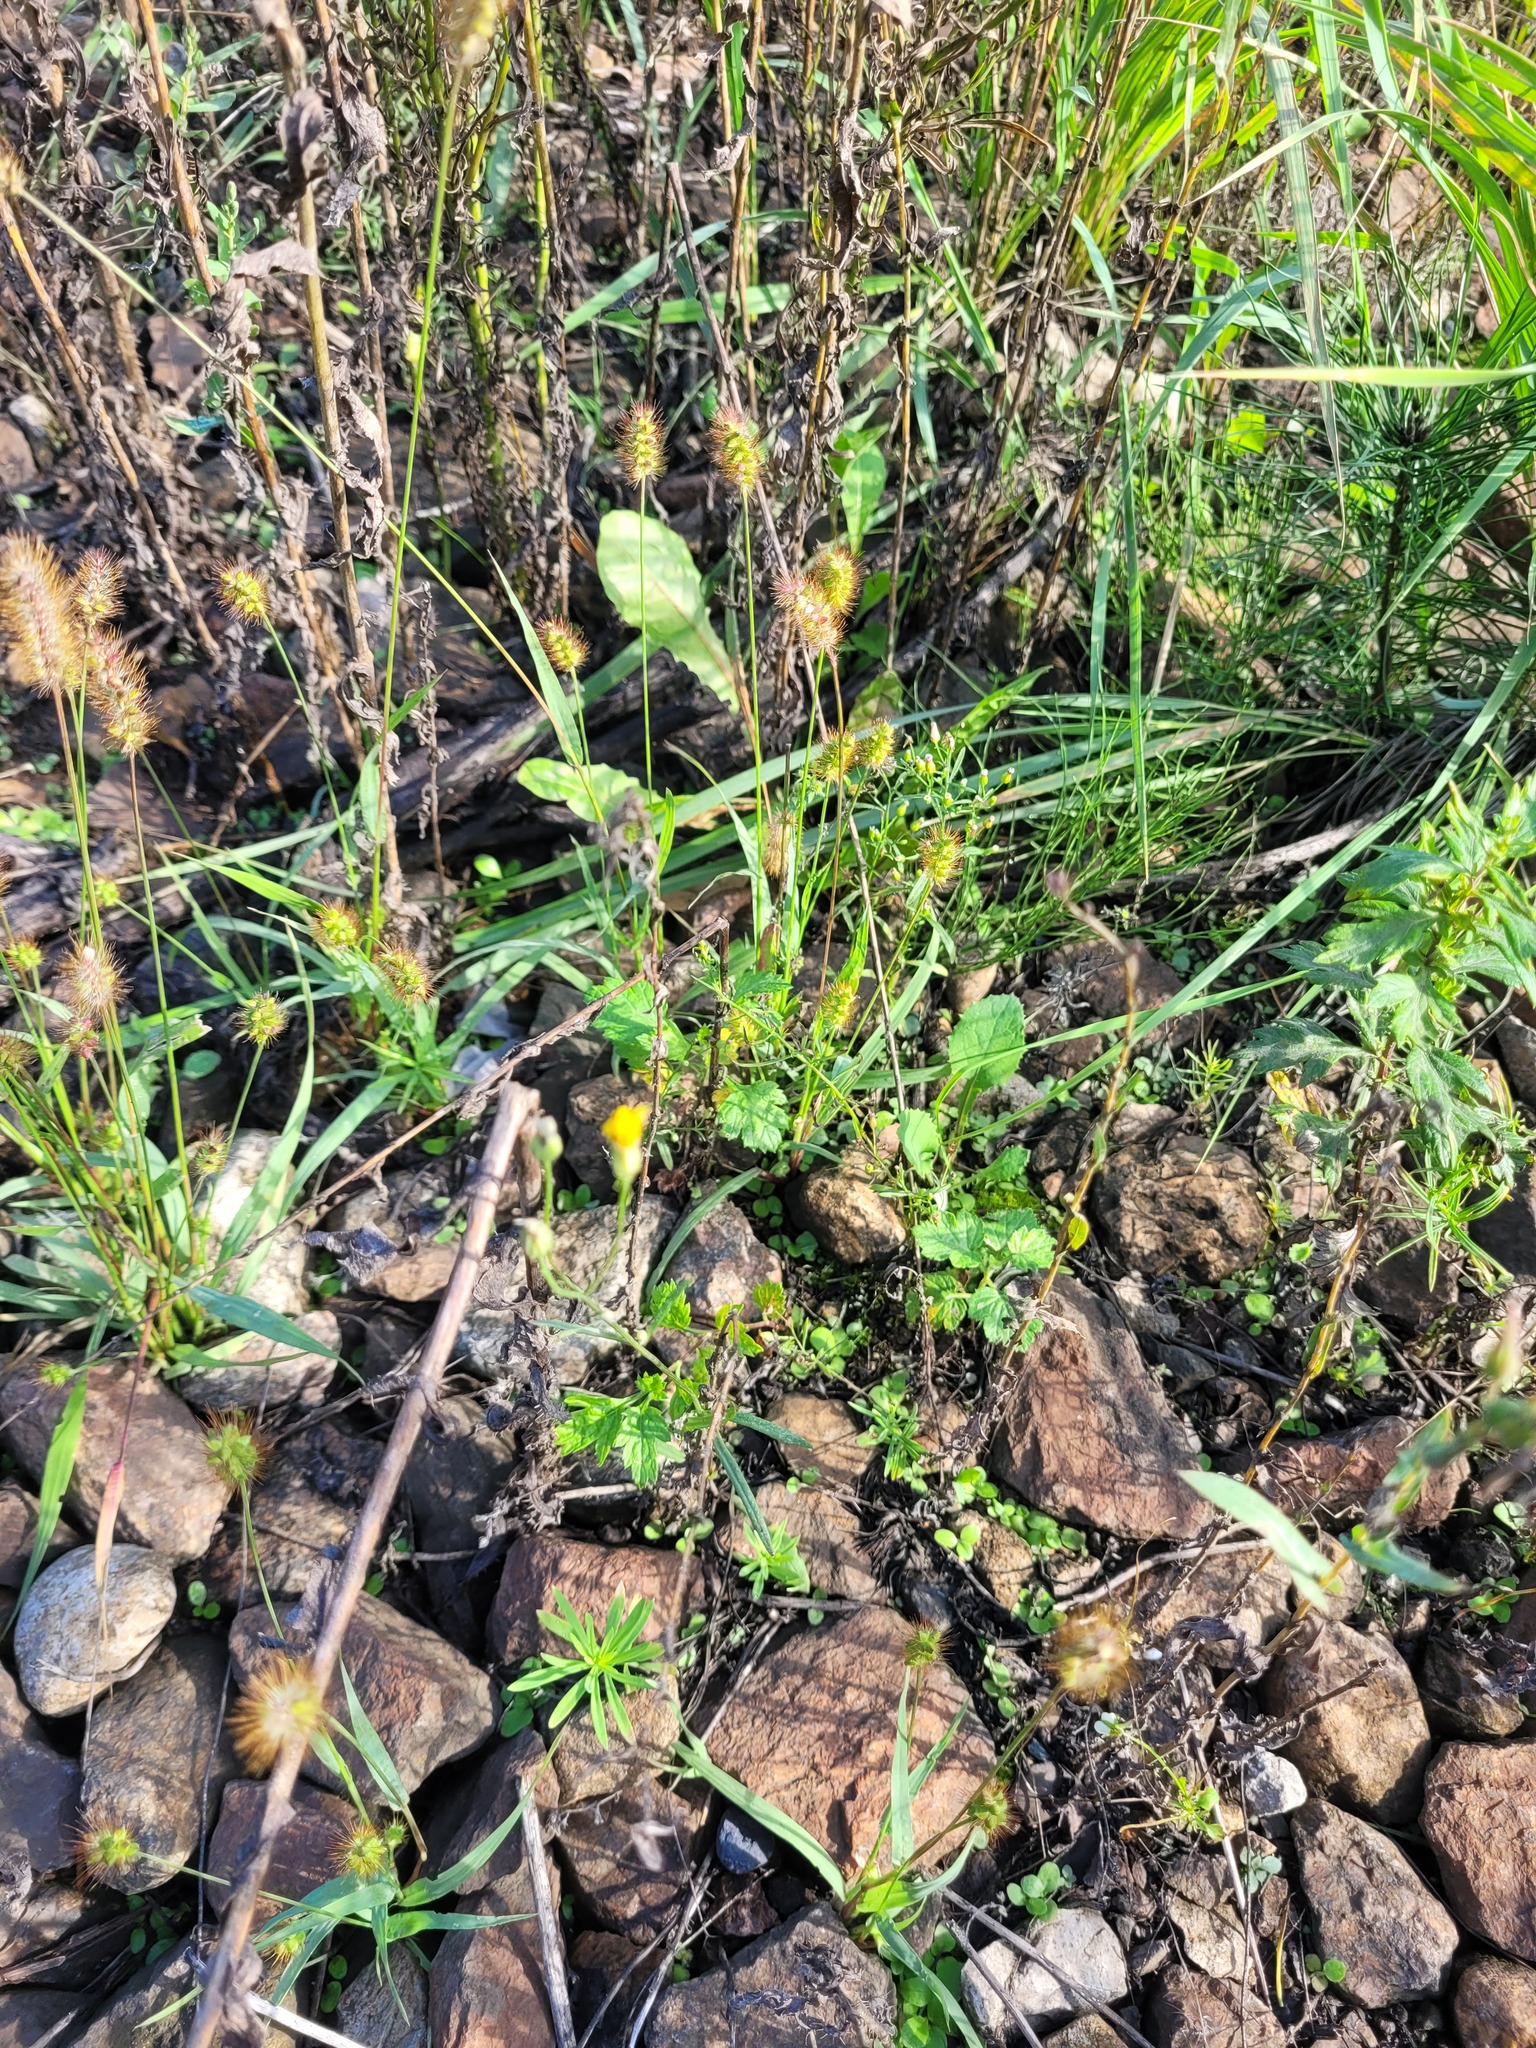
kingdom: Plantae
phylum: Tracheophyta
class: Liliopsida
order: Poales
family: Poaceae
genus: Setaria
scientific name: Setaria pumila
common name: Yellow bristle-grass
